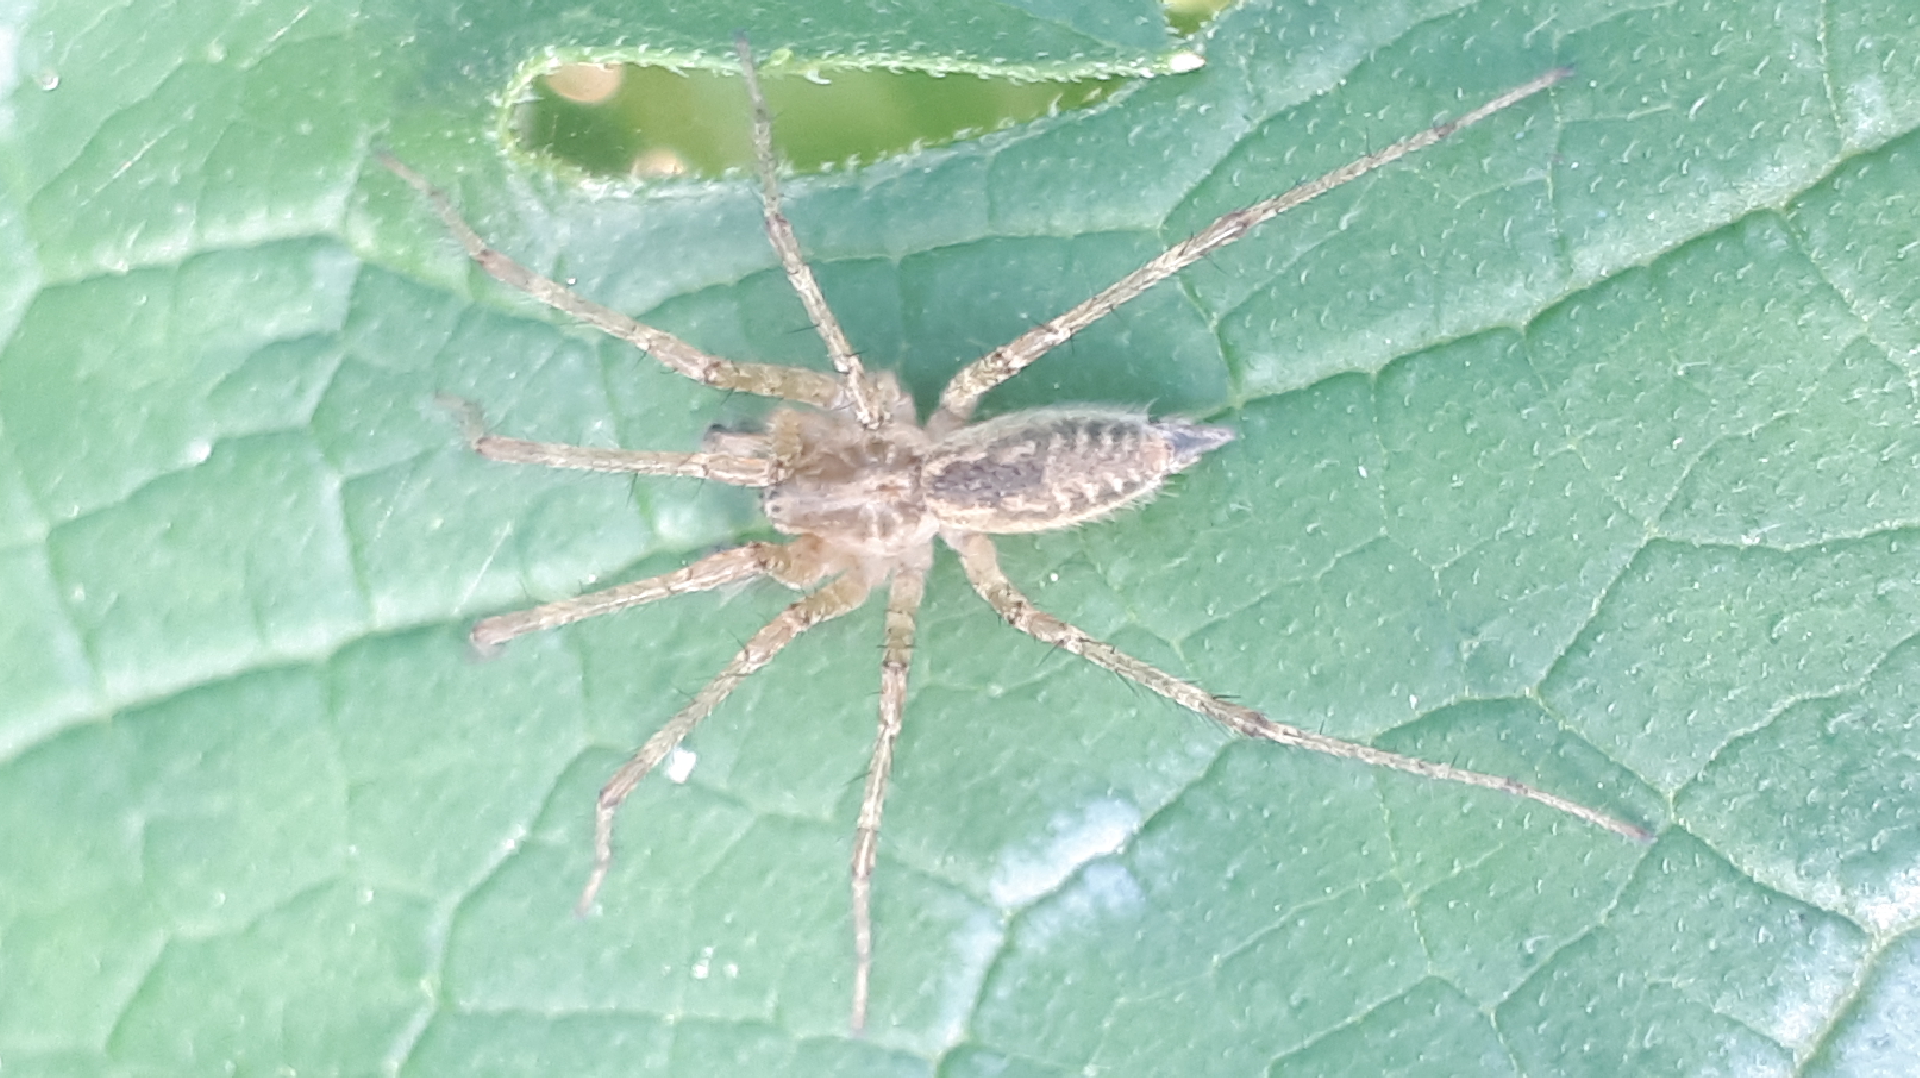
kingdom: Animalia
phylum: Arthropoda
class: Arachnida
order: Araneae
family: Agelenidae
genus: Allagelena
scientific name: Allagelena gracilens
